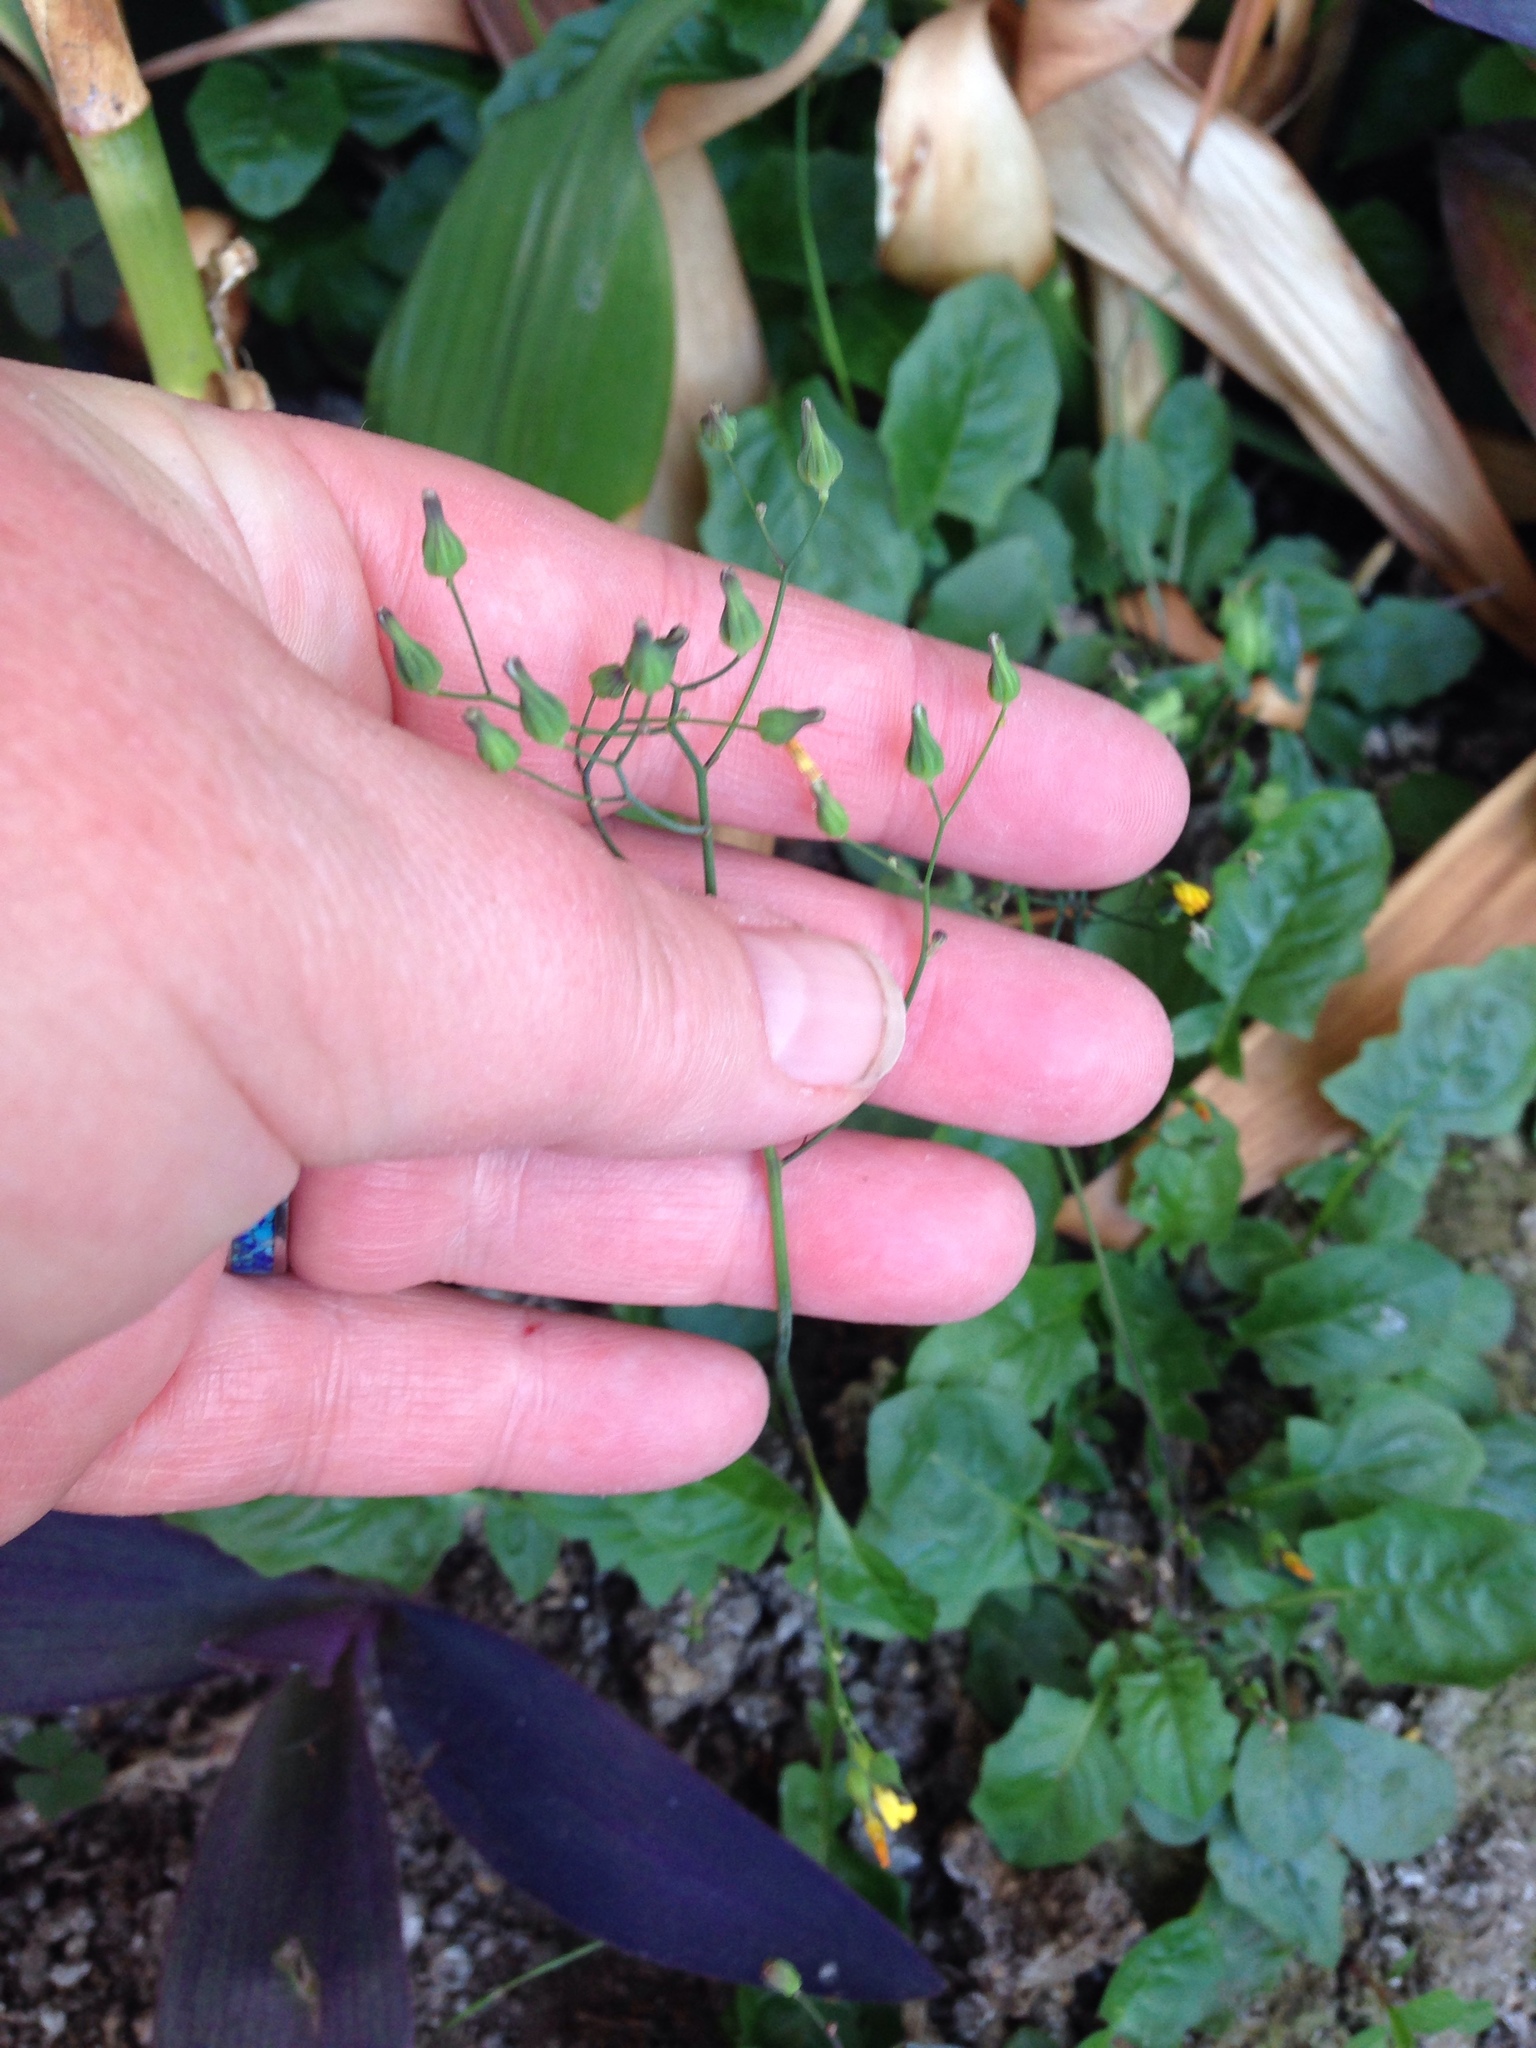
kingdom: Plantae
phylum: Tracheophyta
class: Magnoliopsida
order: Asterales
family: Asteraceae
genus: Youngia
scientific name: Youngia japonica
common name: Oriental false hawksbeard
